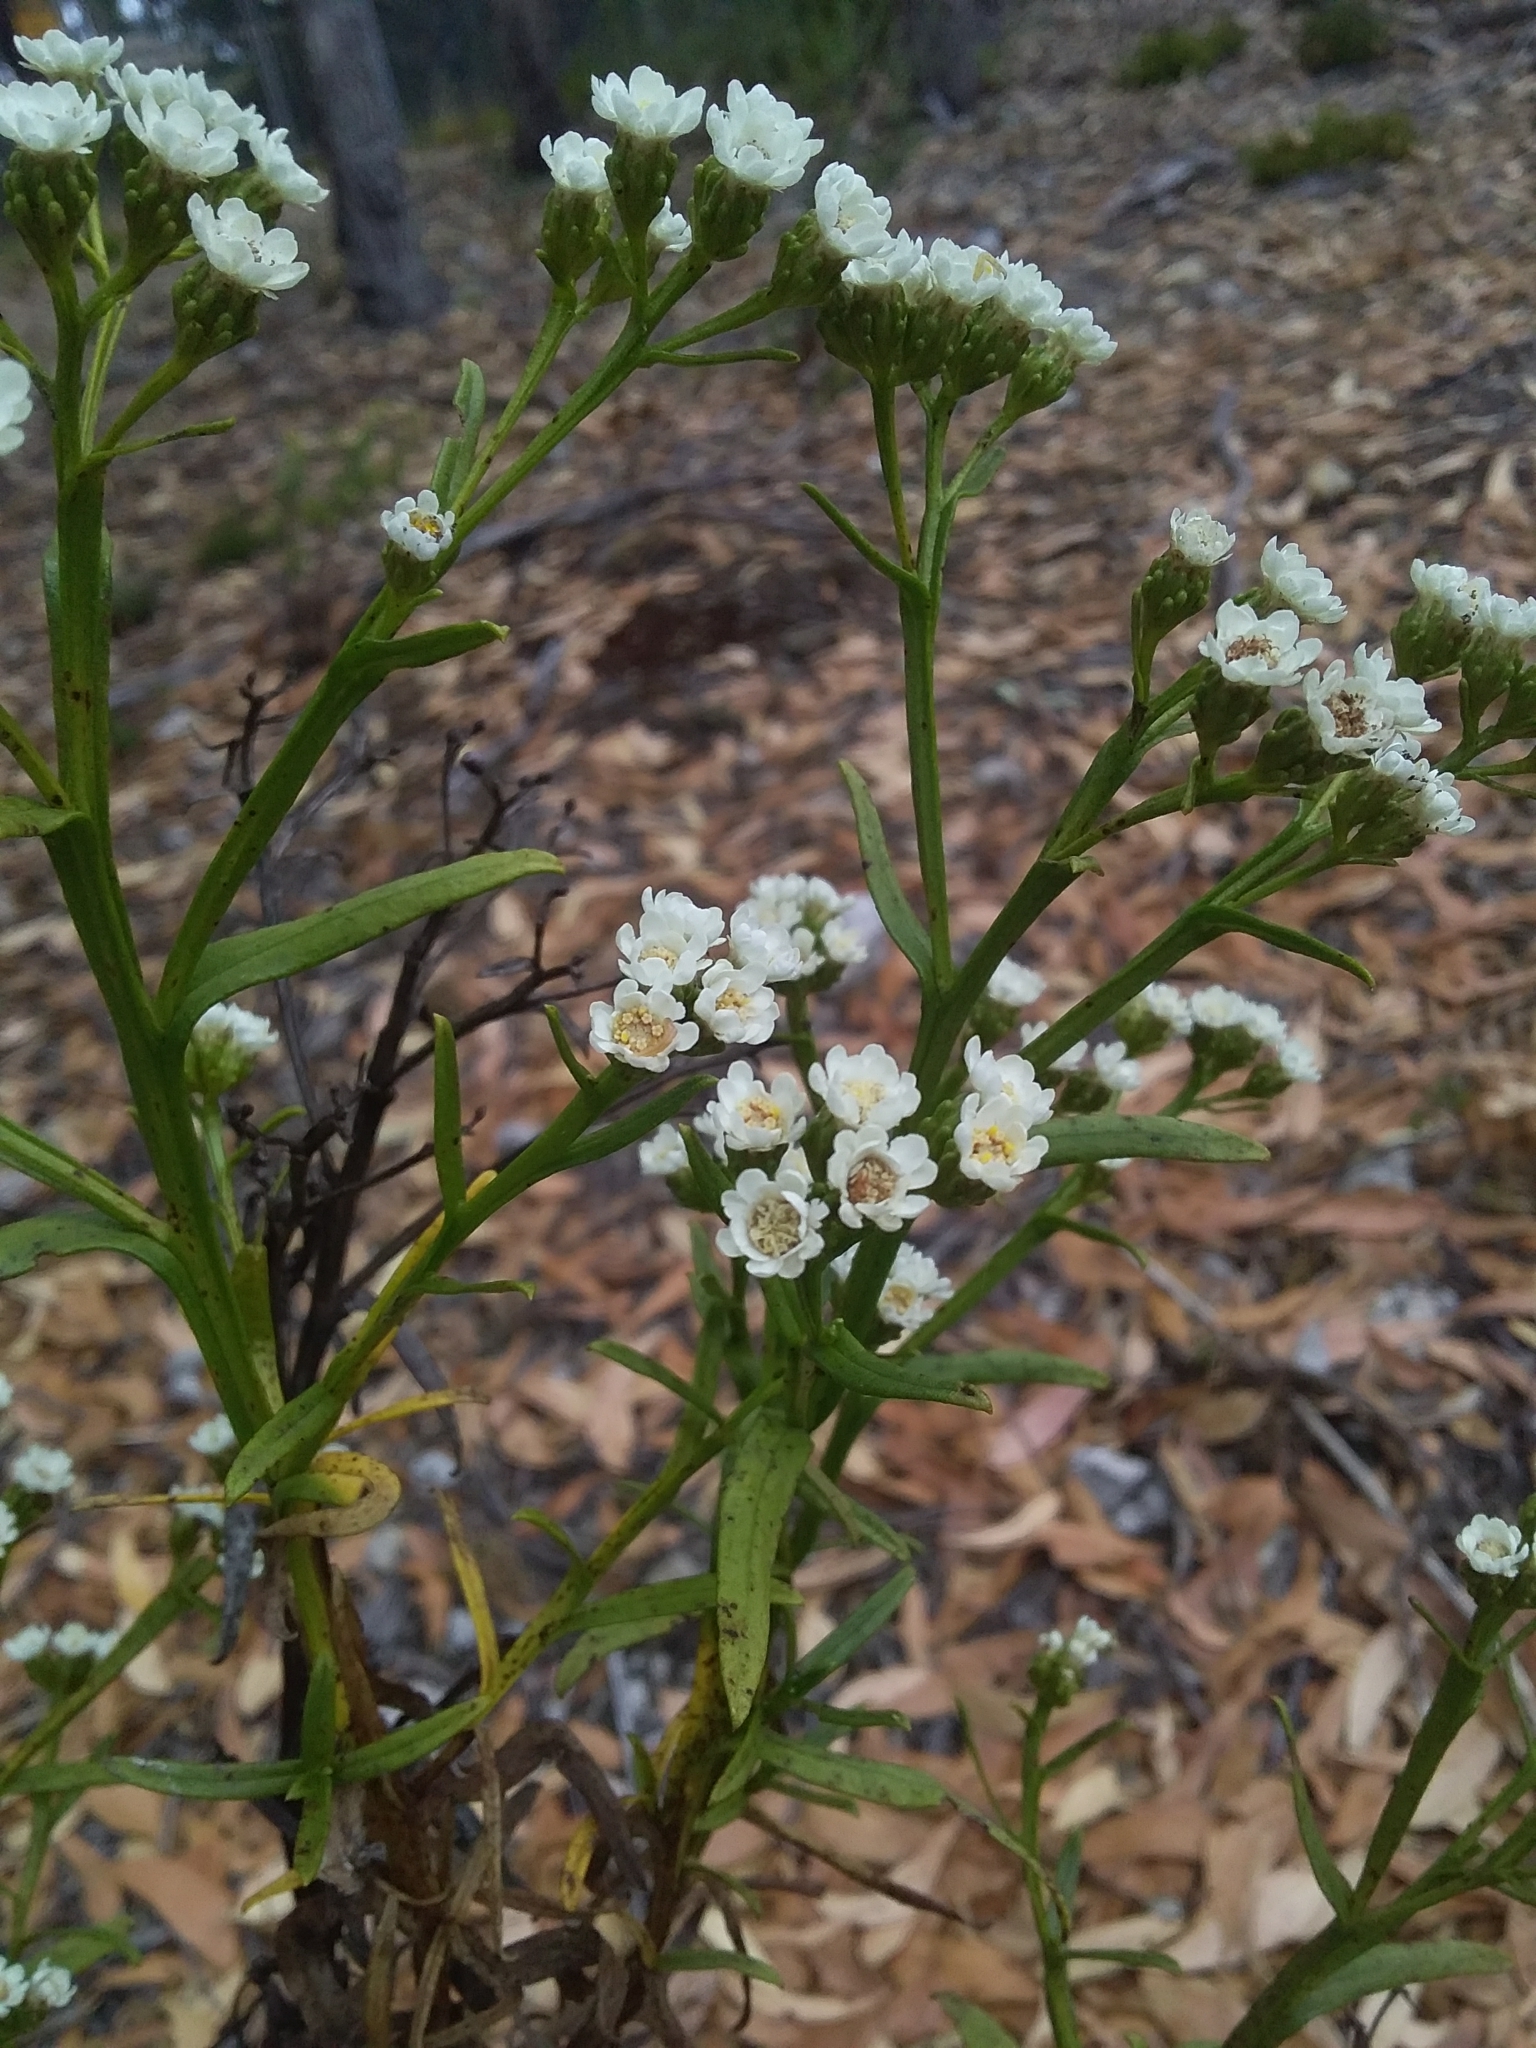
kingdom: Plantae
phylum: Tracheophyta
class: Magnoliopsida
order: Asterales
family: Asteraceae
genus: Ixodia
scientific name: Ixodia achillaeoides
